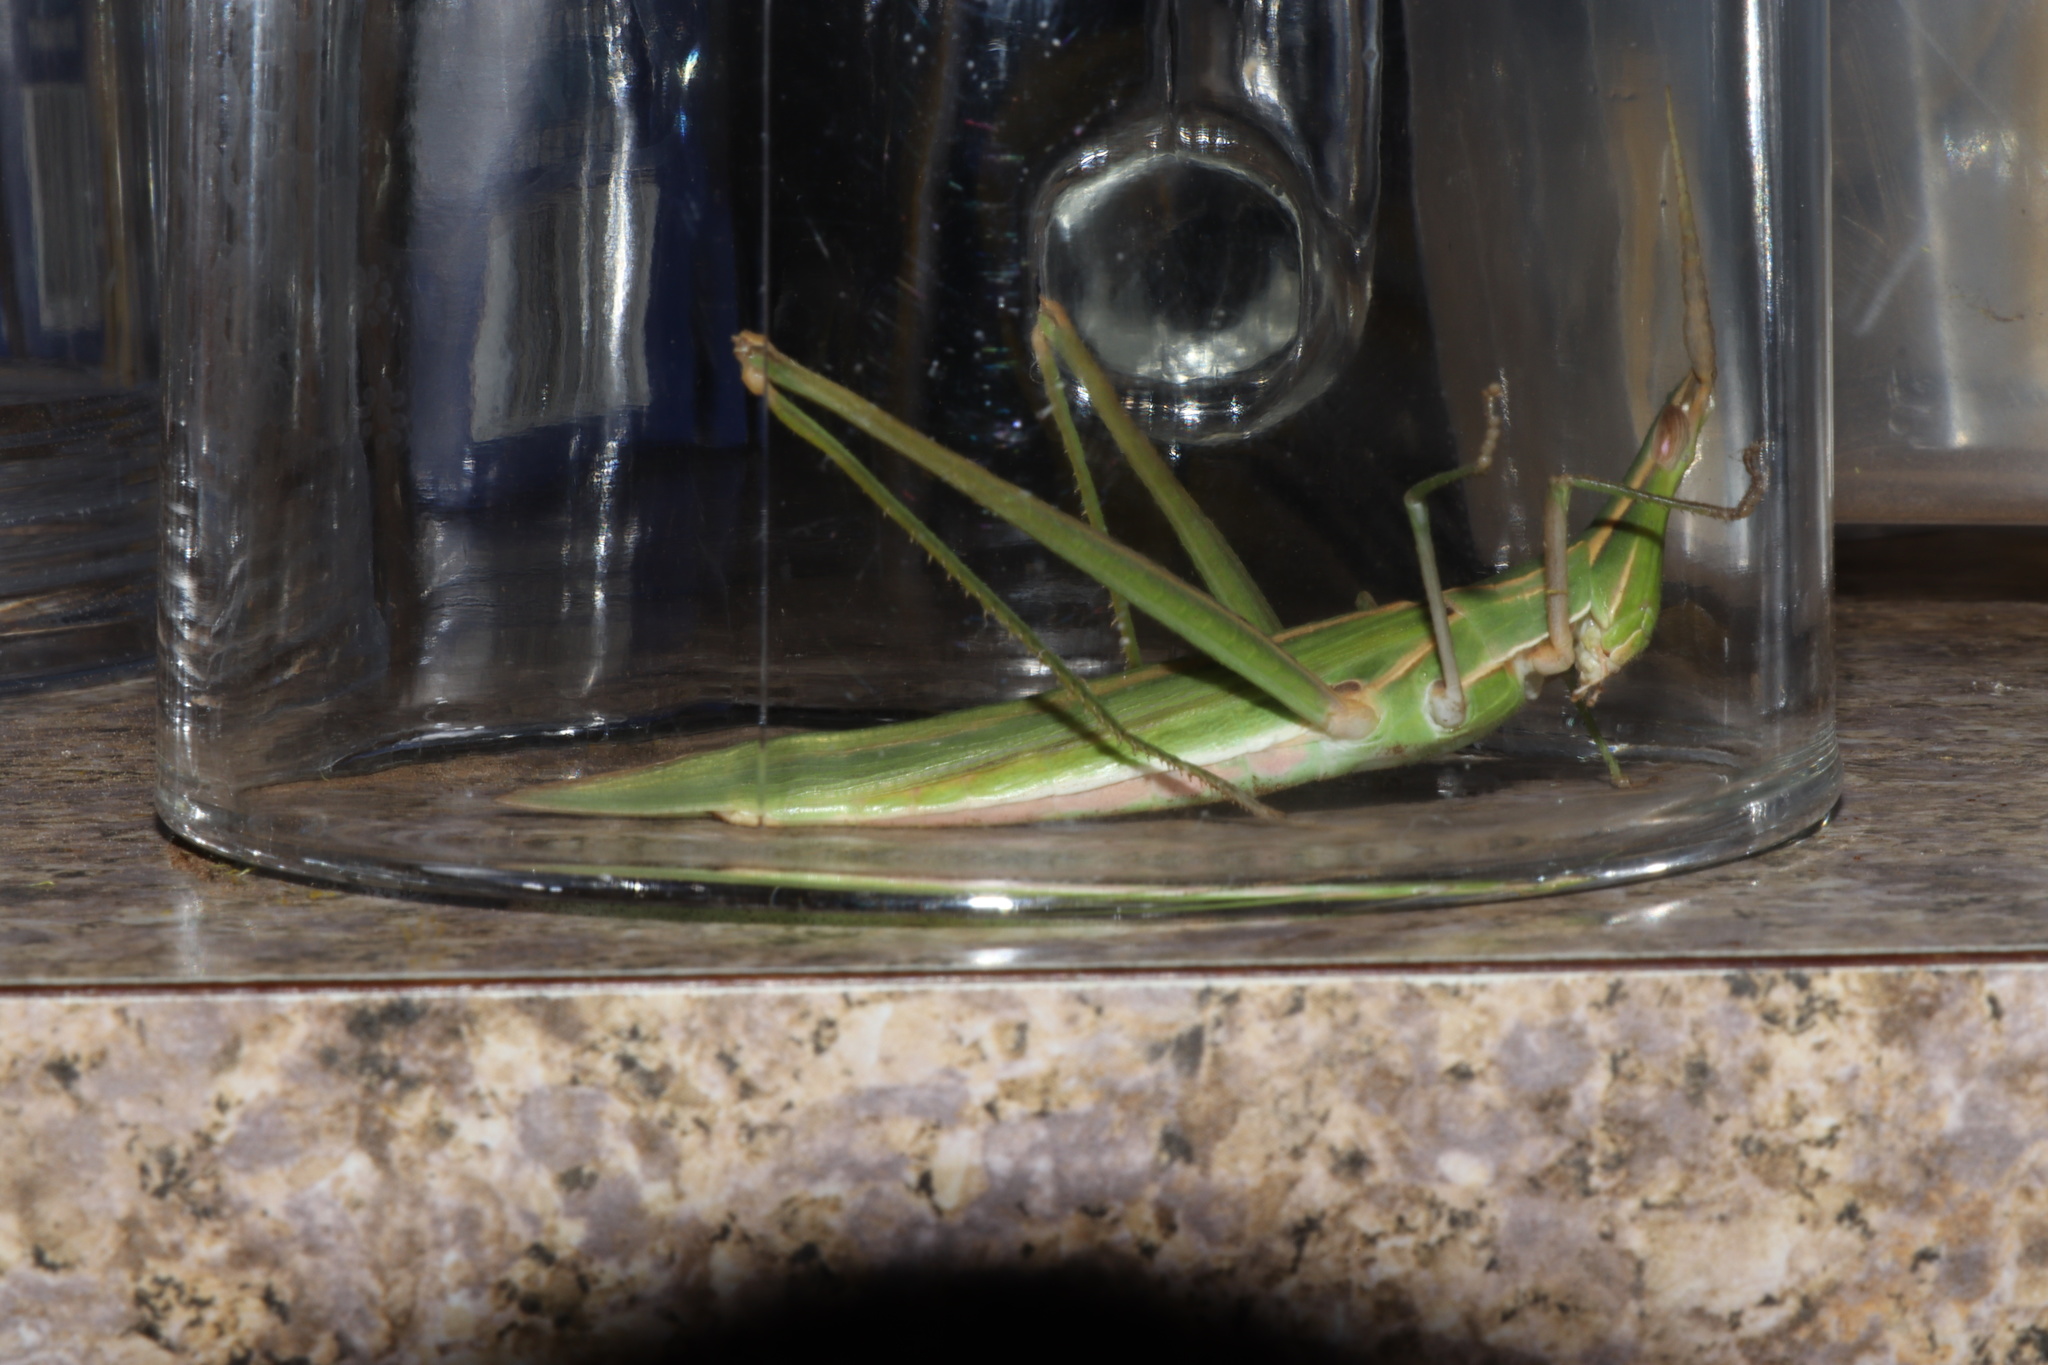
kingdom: Animalia
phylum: Arthropoda
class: Insecta
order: Orthoptera
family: Acrididae
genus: Acrida
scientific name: Acrida conica
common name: Giant green slantface
